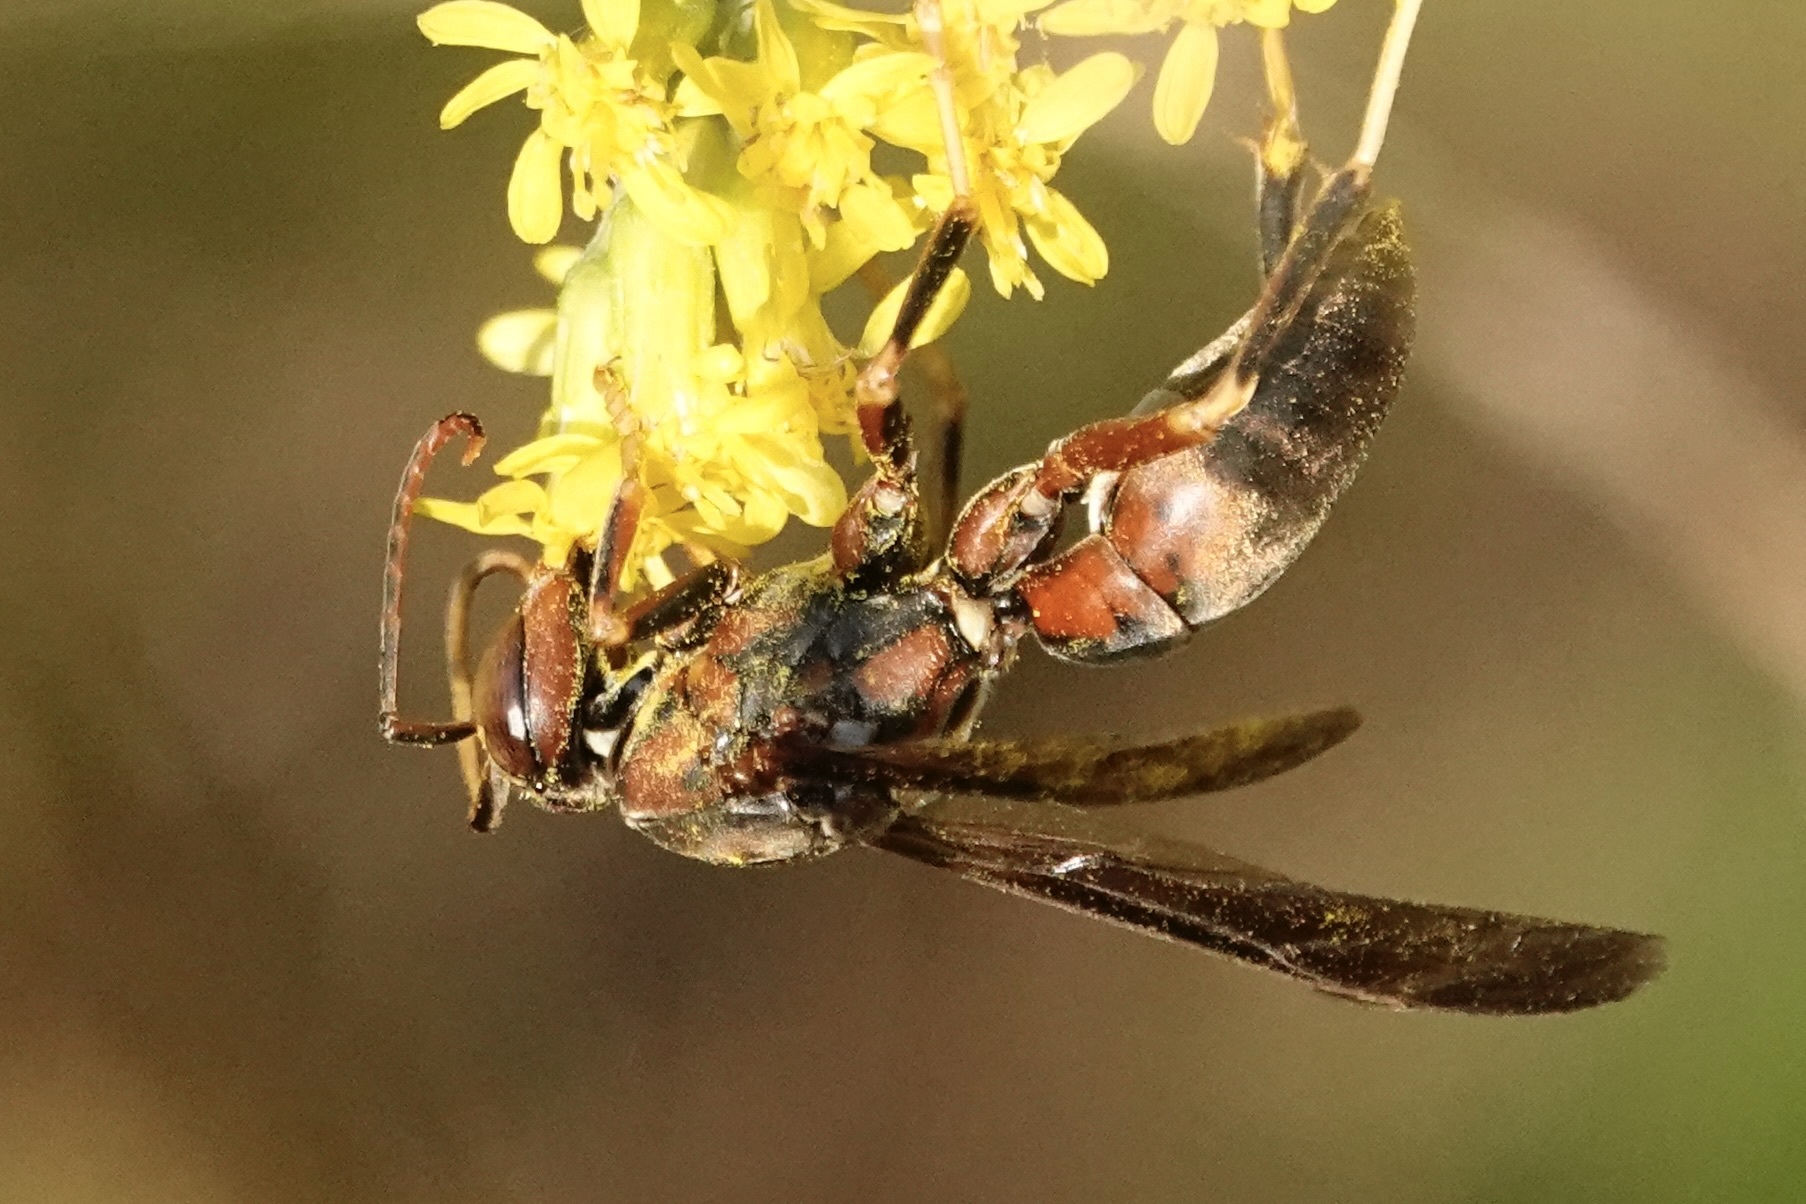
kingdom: Animalia
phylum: Arthropoda
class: Insecta
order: Hymenoptera
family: Eumenidae
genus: Polistes
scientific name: Polistes metricus
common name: Metric paper wasp
